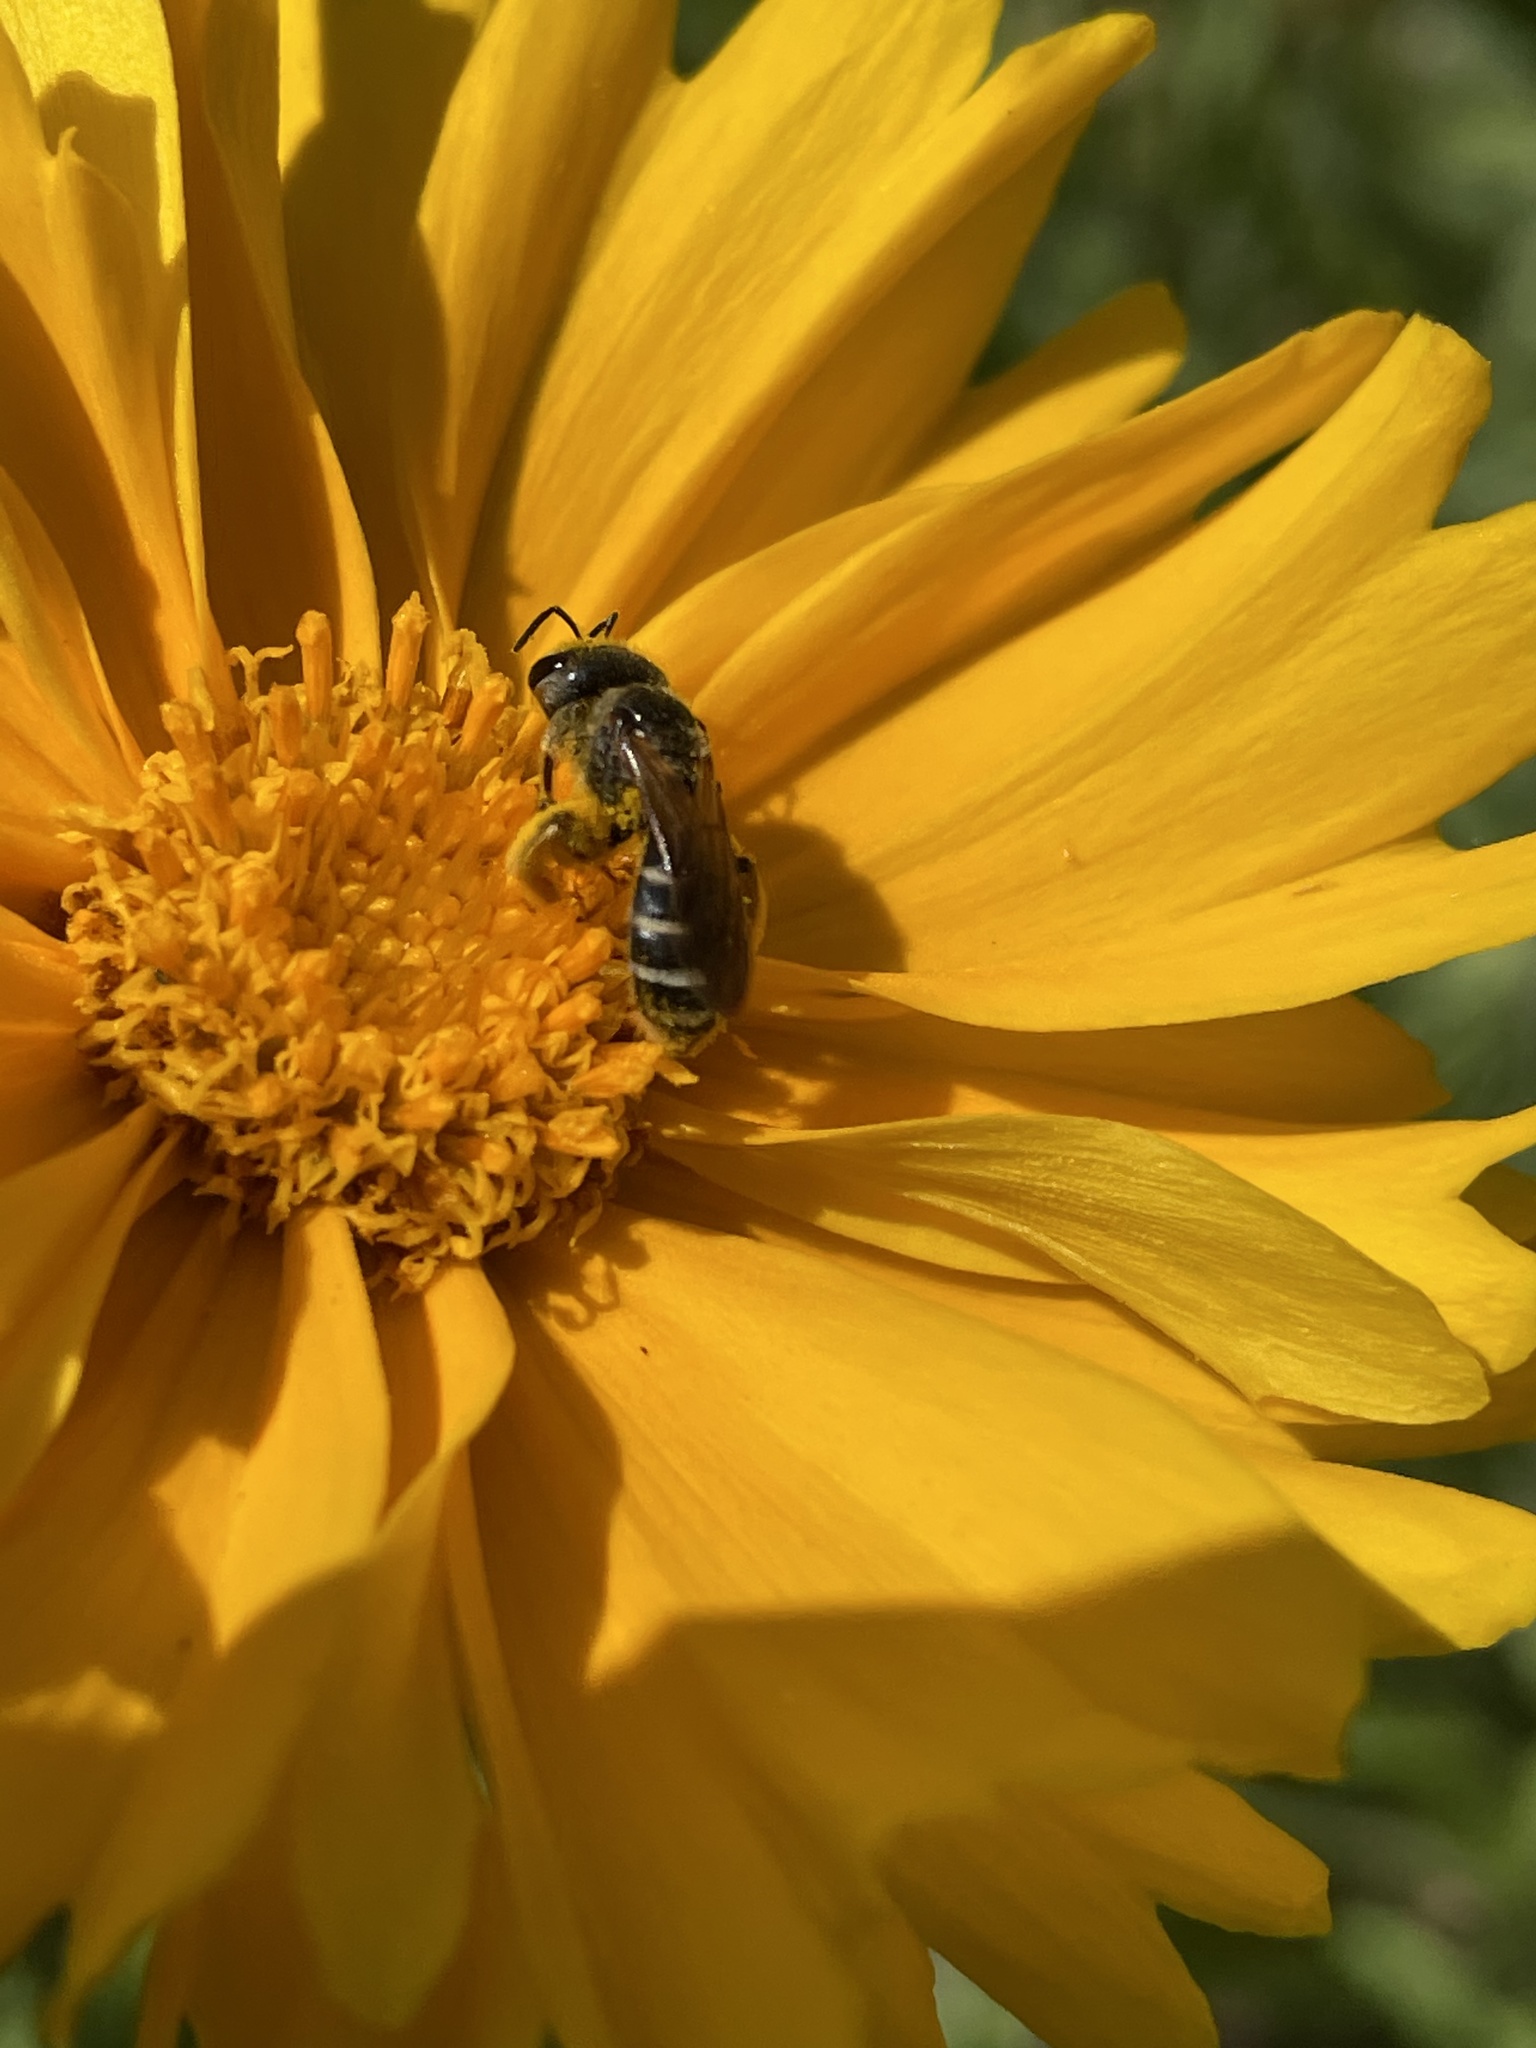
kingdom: Animalia
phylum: Arthropoda
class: Insecta
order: Hymenoptera
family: Halictidae
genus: Halictus
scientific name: Halictus ligatus
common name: Ligated furrow bee
